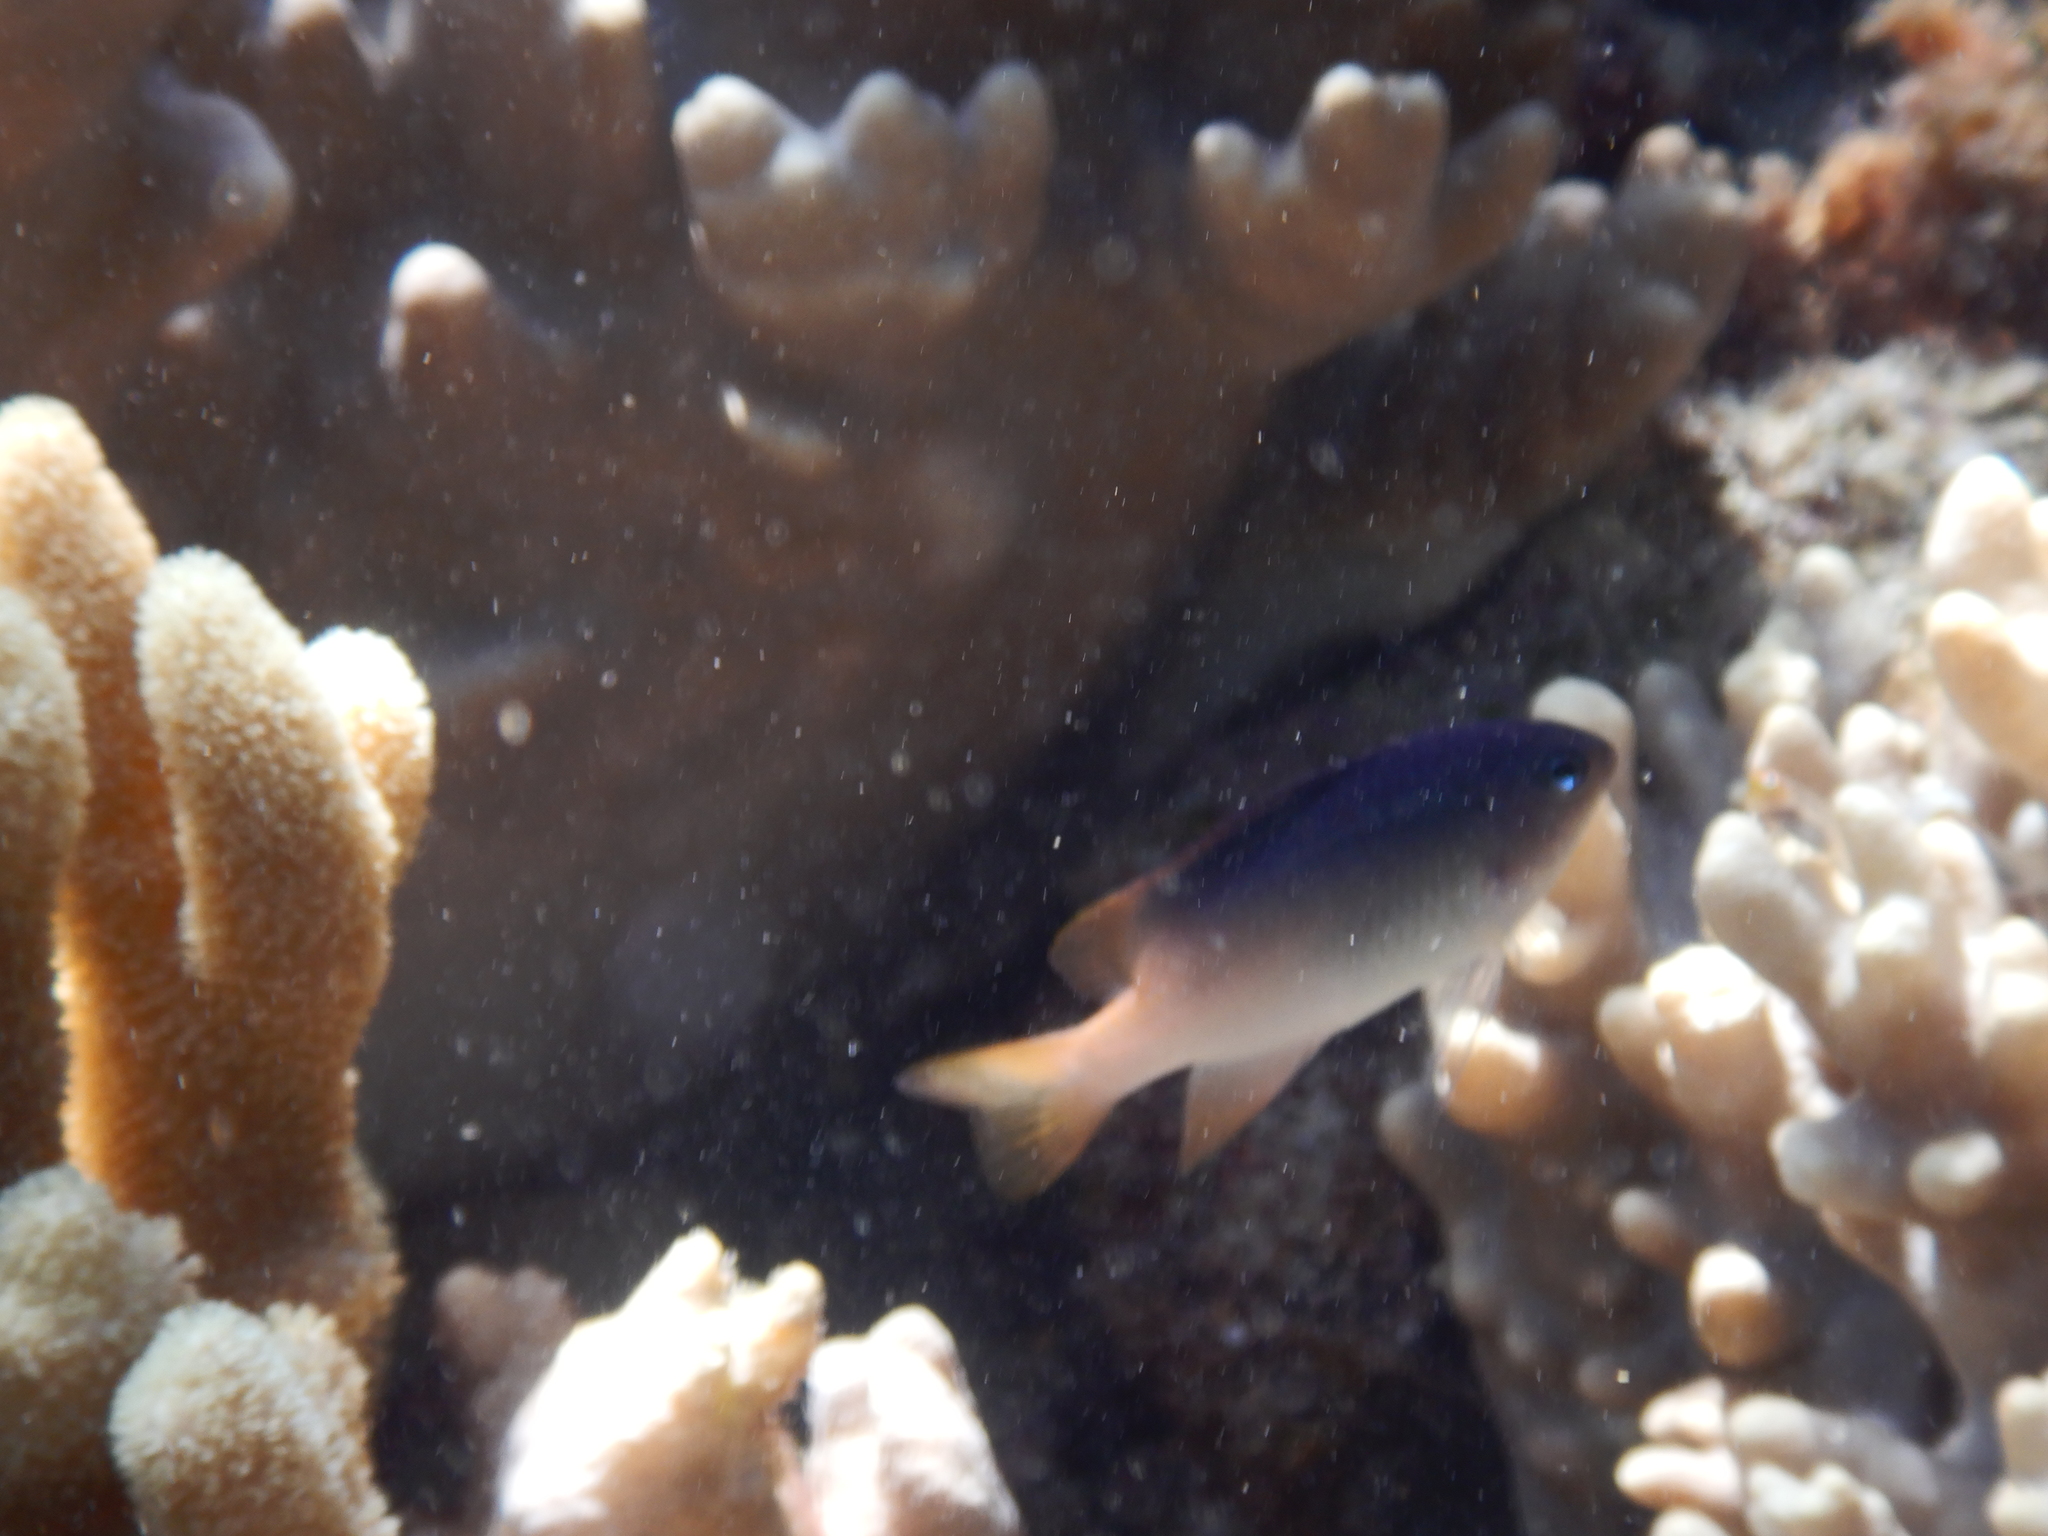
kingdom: Animalia
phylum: Chordata
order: Perciformes
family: Pomacentridae
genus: Chrysiptera
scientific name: Chrysiptera rollandi
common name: Rolland's demoiselle
